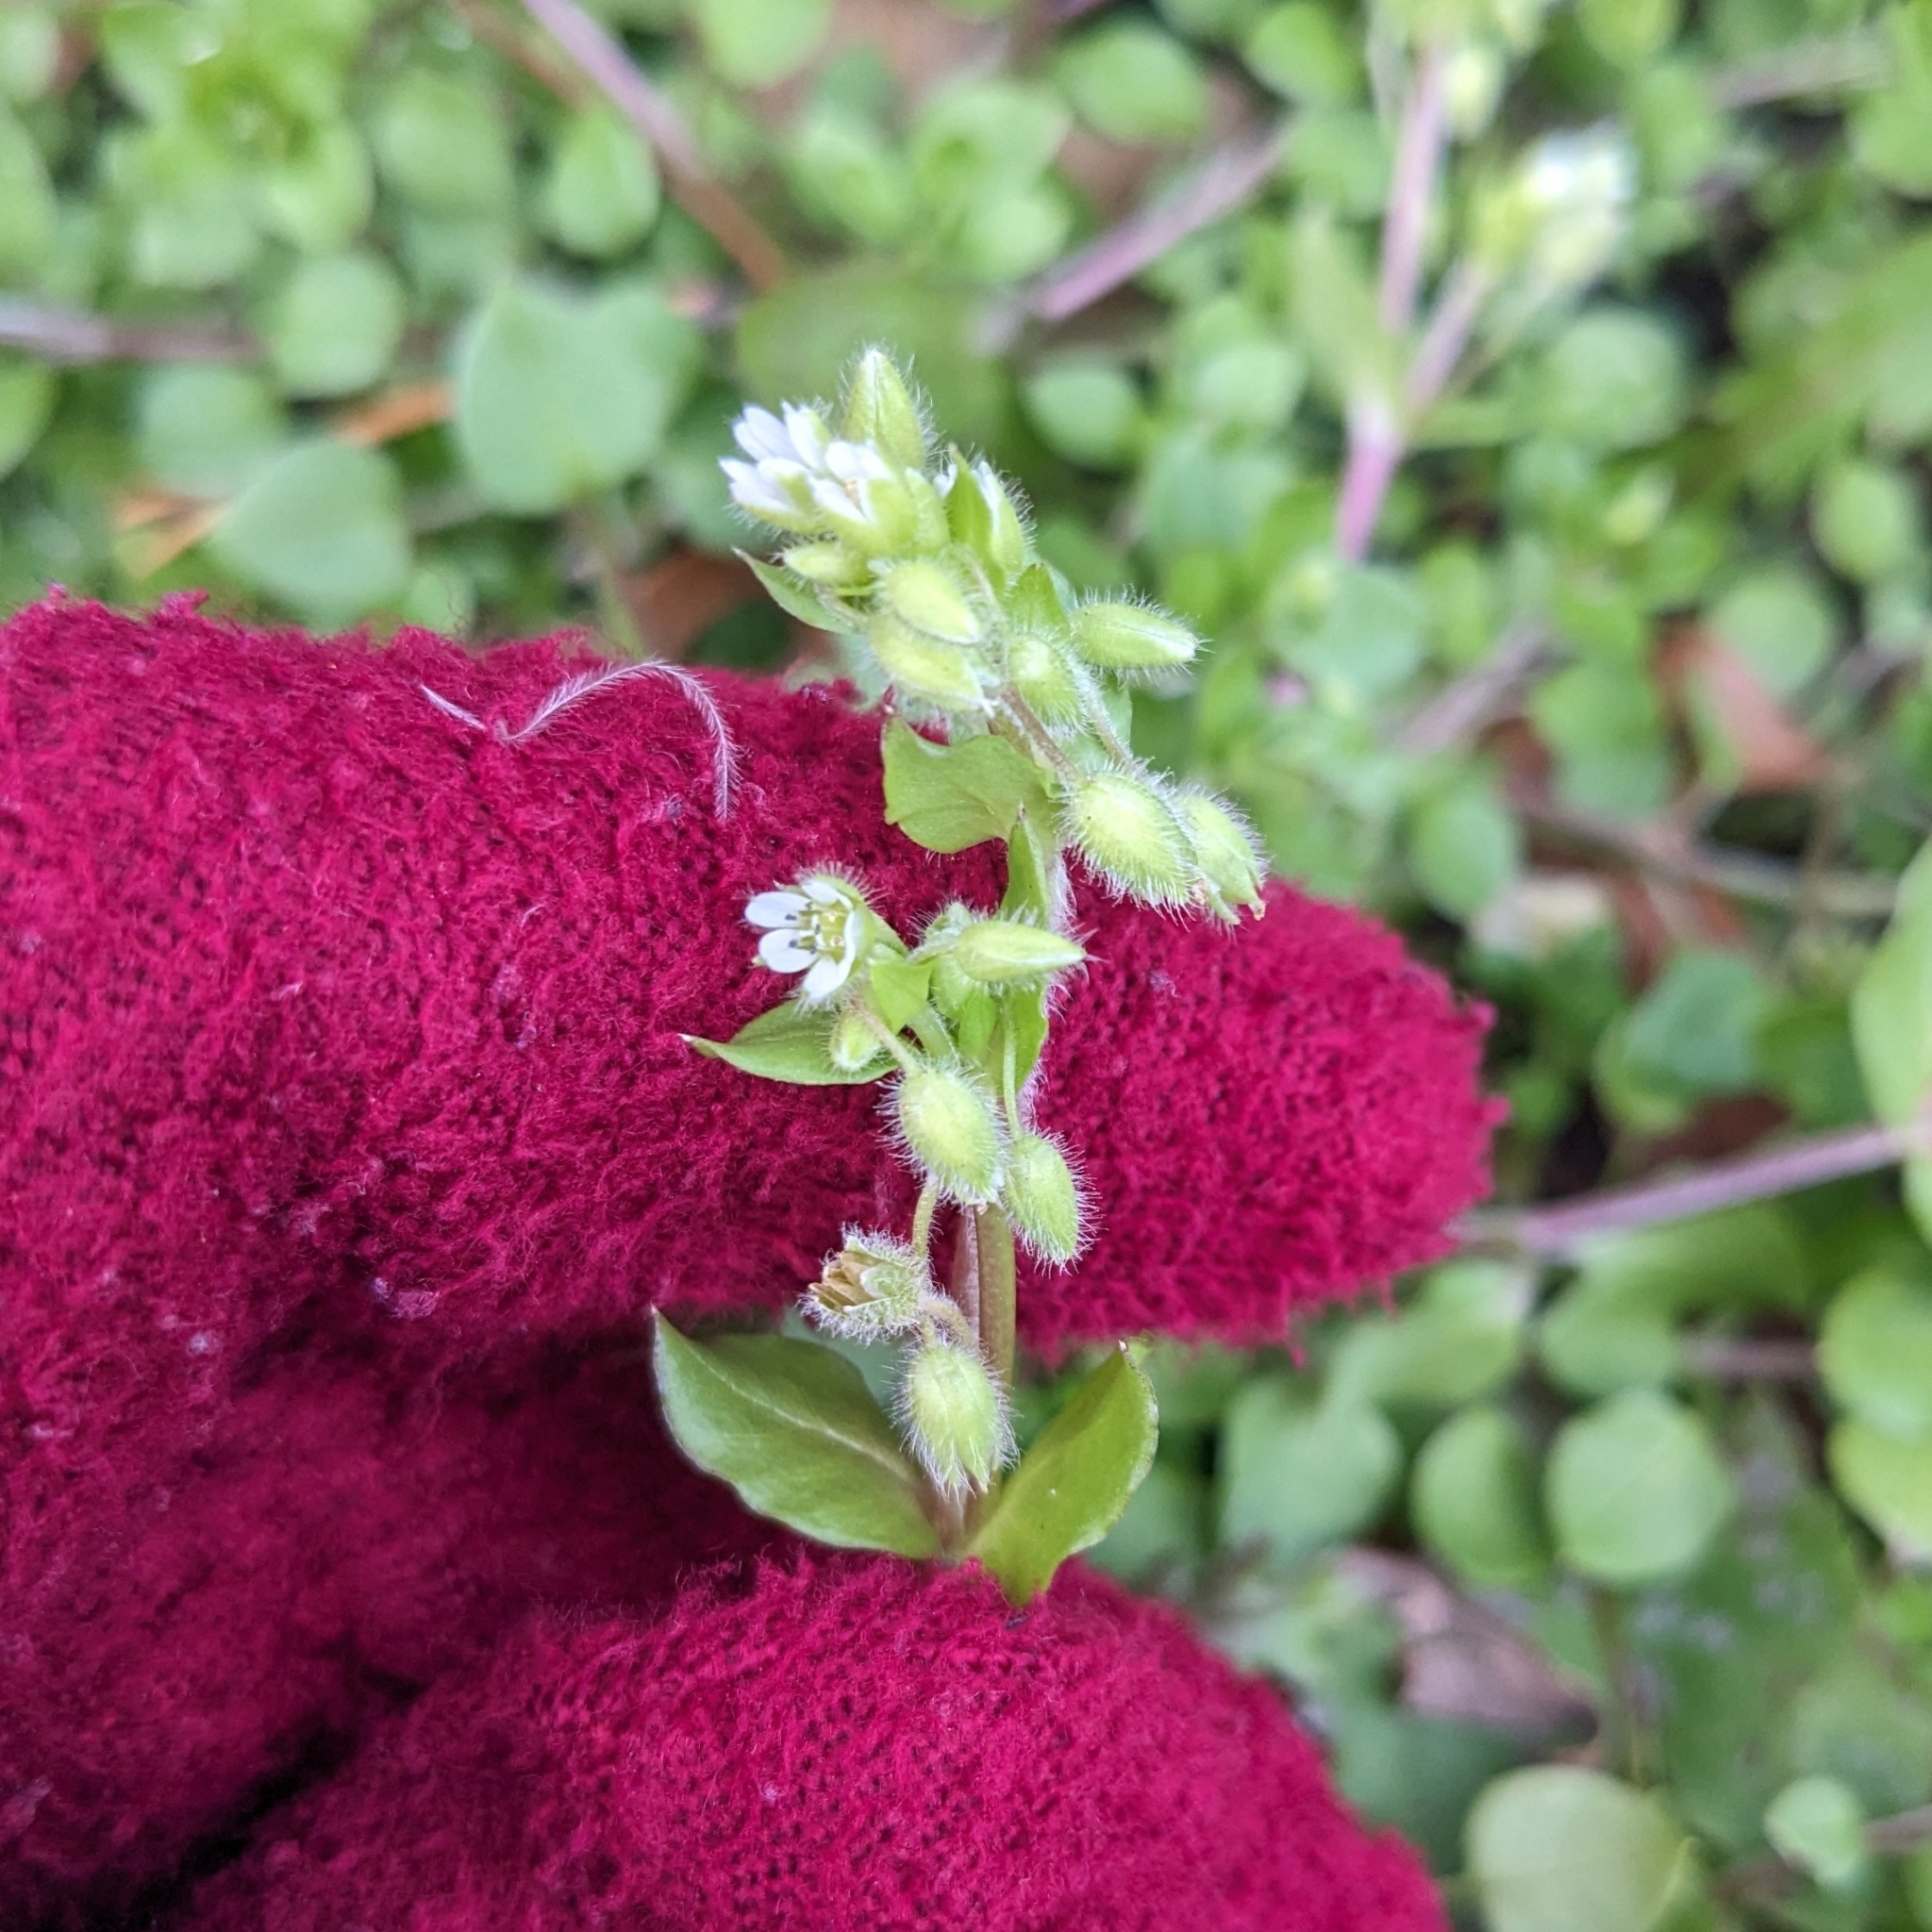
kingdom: Plantae
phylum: Tracheophyta
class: Magnoliopsida
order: Caryophyllales
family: Caryophyllaceae
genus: Stellaria
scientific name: Stellaria media
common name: Common chickweed
